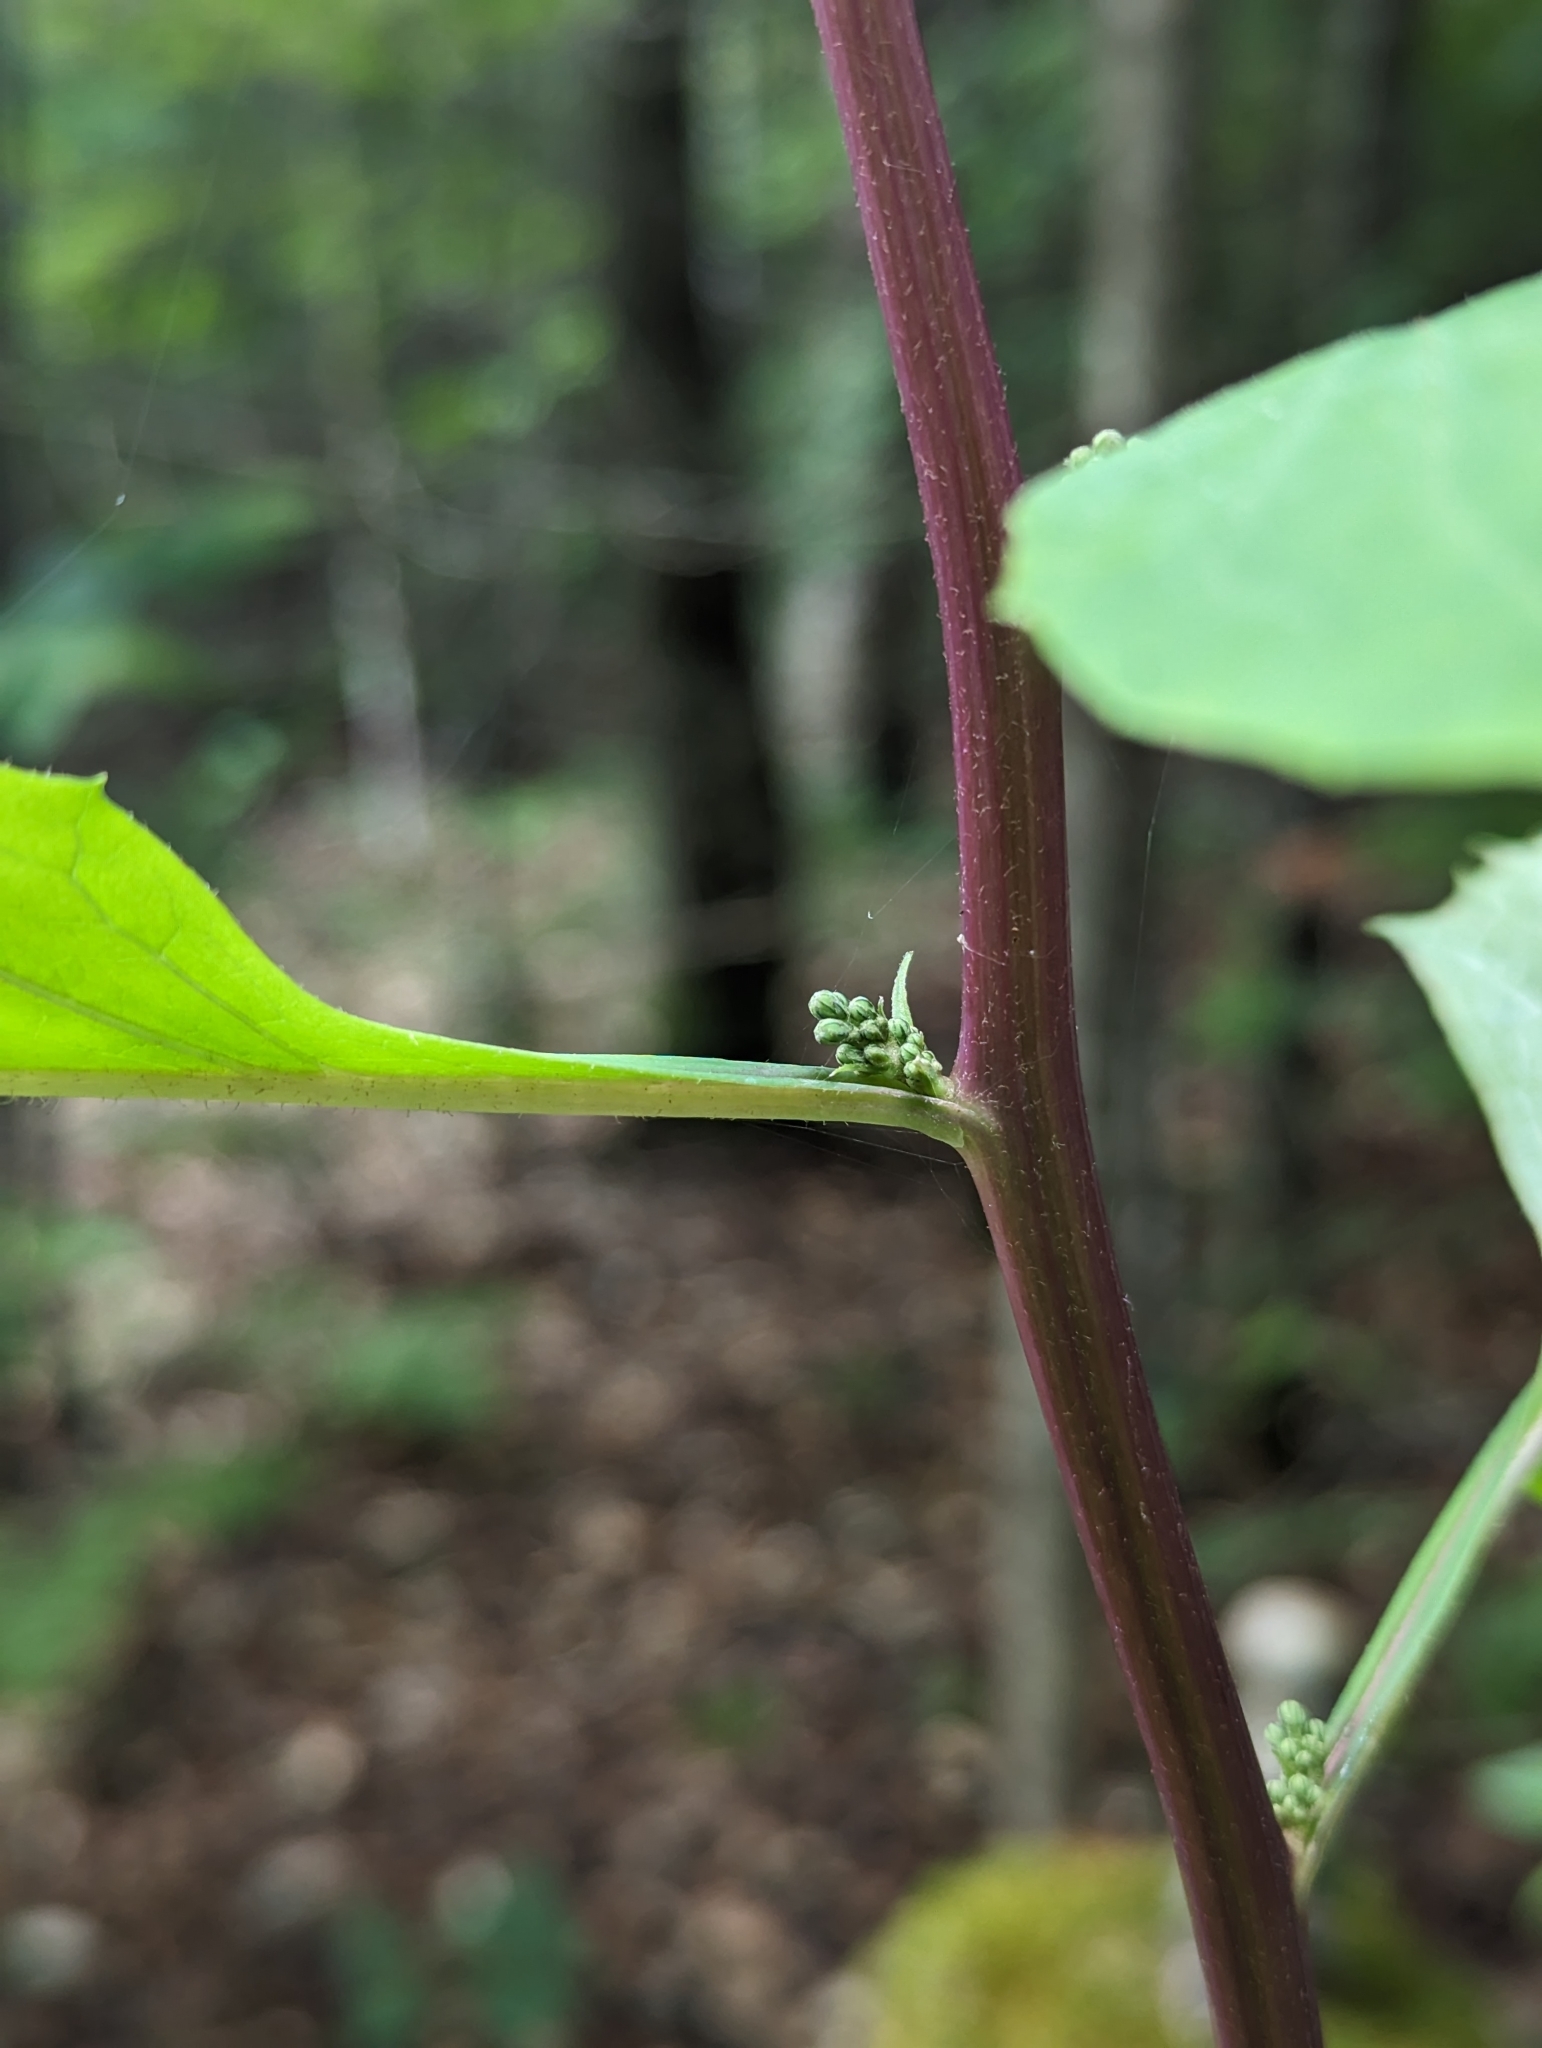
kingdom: Plantae
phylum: Tracheophyta
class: Magnoliopsida
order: Asterales
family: Asteraceae
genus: Nabalus
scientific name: Nabalus altissima
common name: Tall rattlesnakeroot
